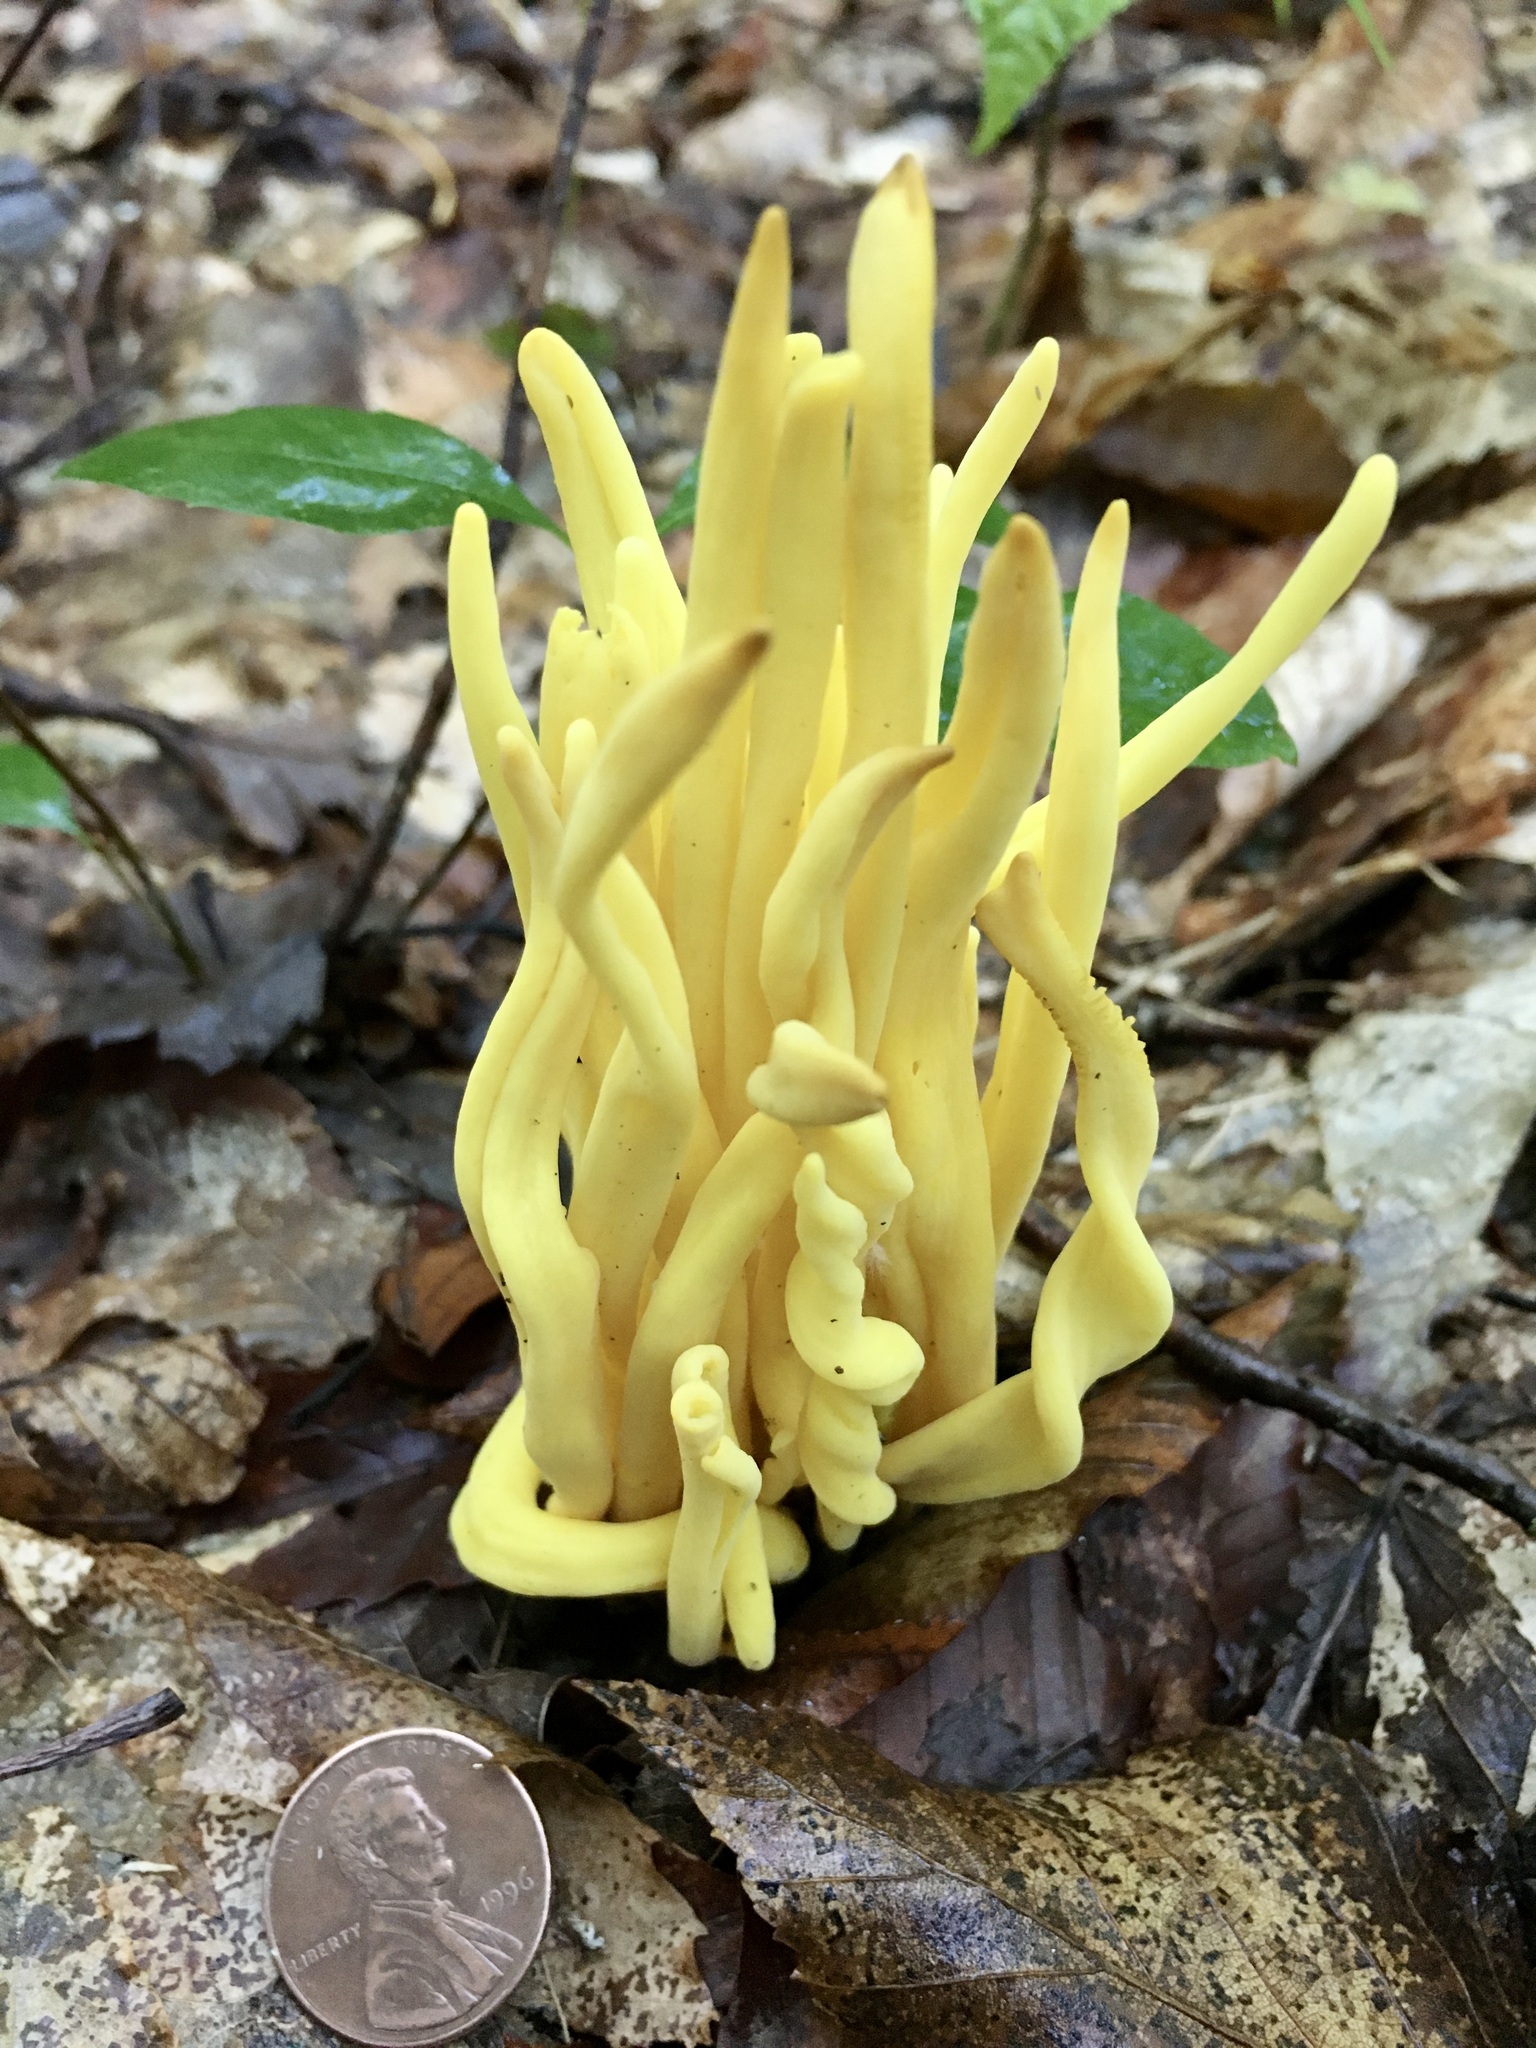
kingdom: Fungi
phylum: Basidiomycota
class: Agaricomycetes
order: Agaricales
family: Clavariaceae
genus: Clavulinopsis
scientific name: Clavulinopsis fusiformis
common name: Golden spindles
